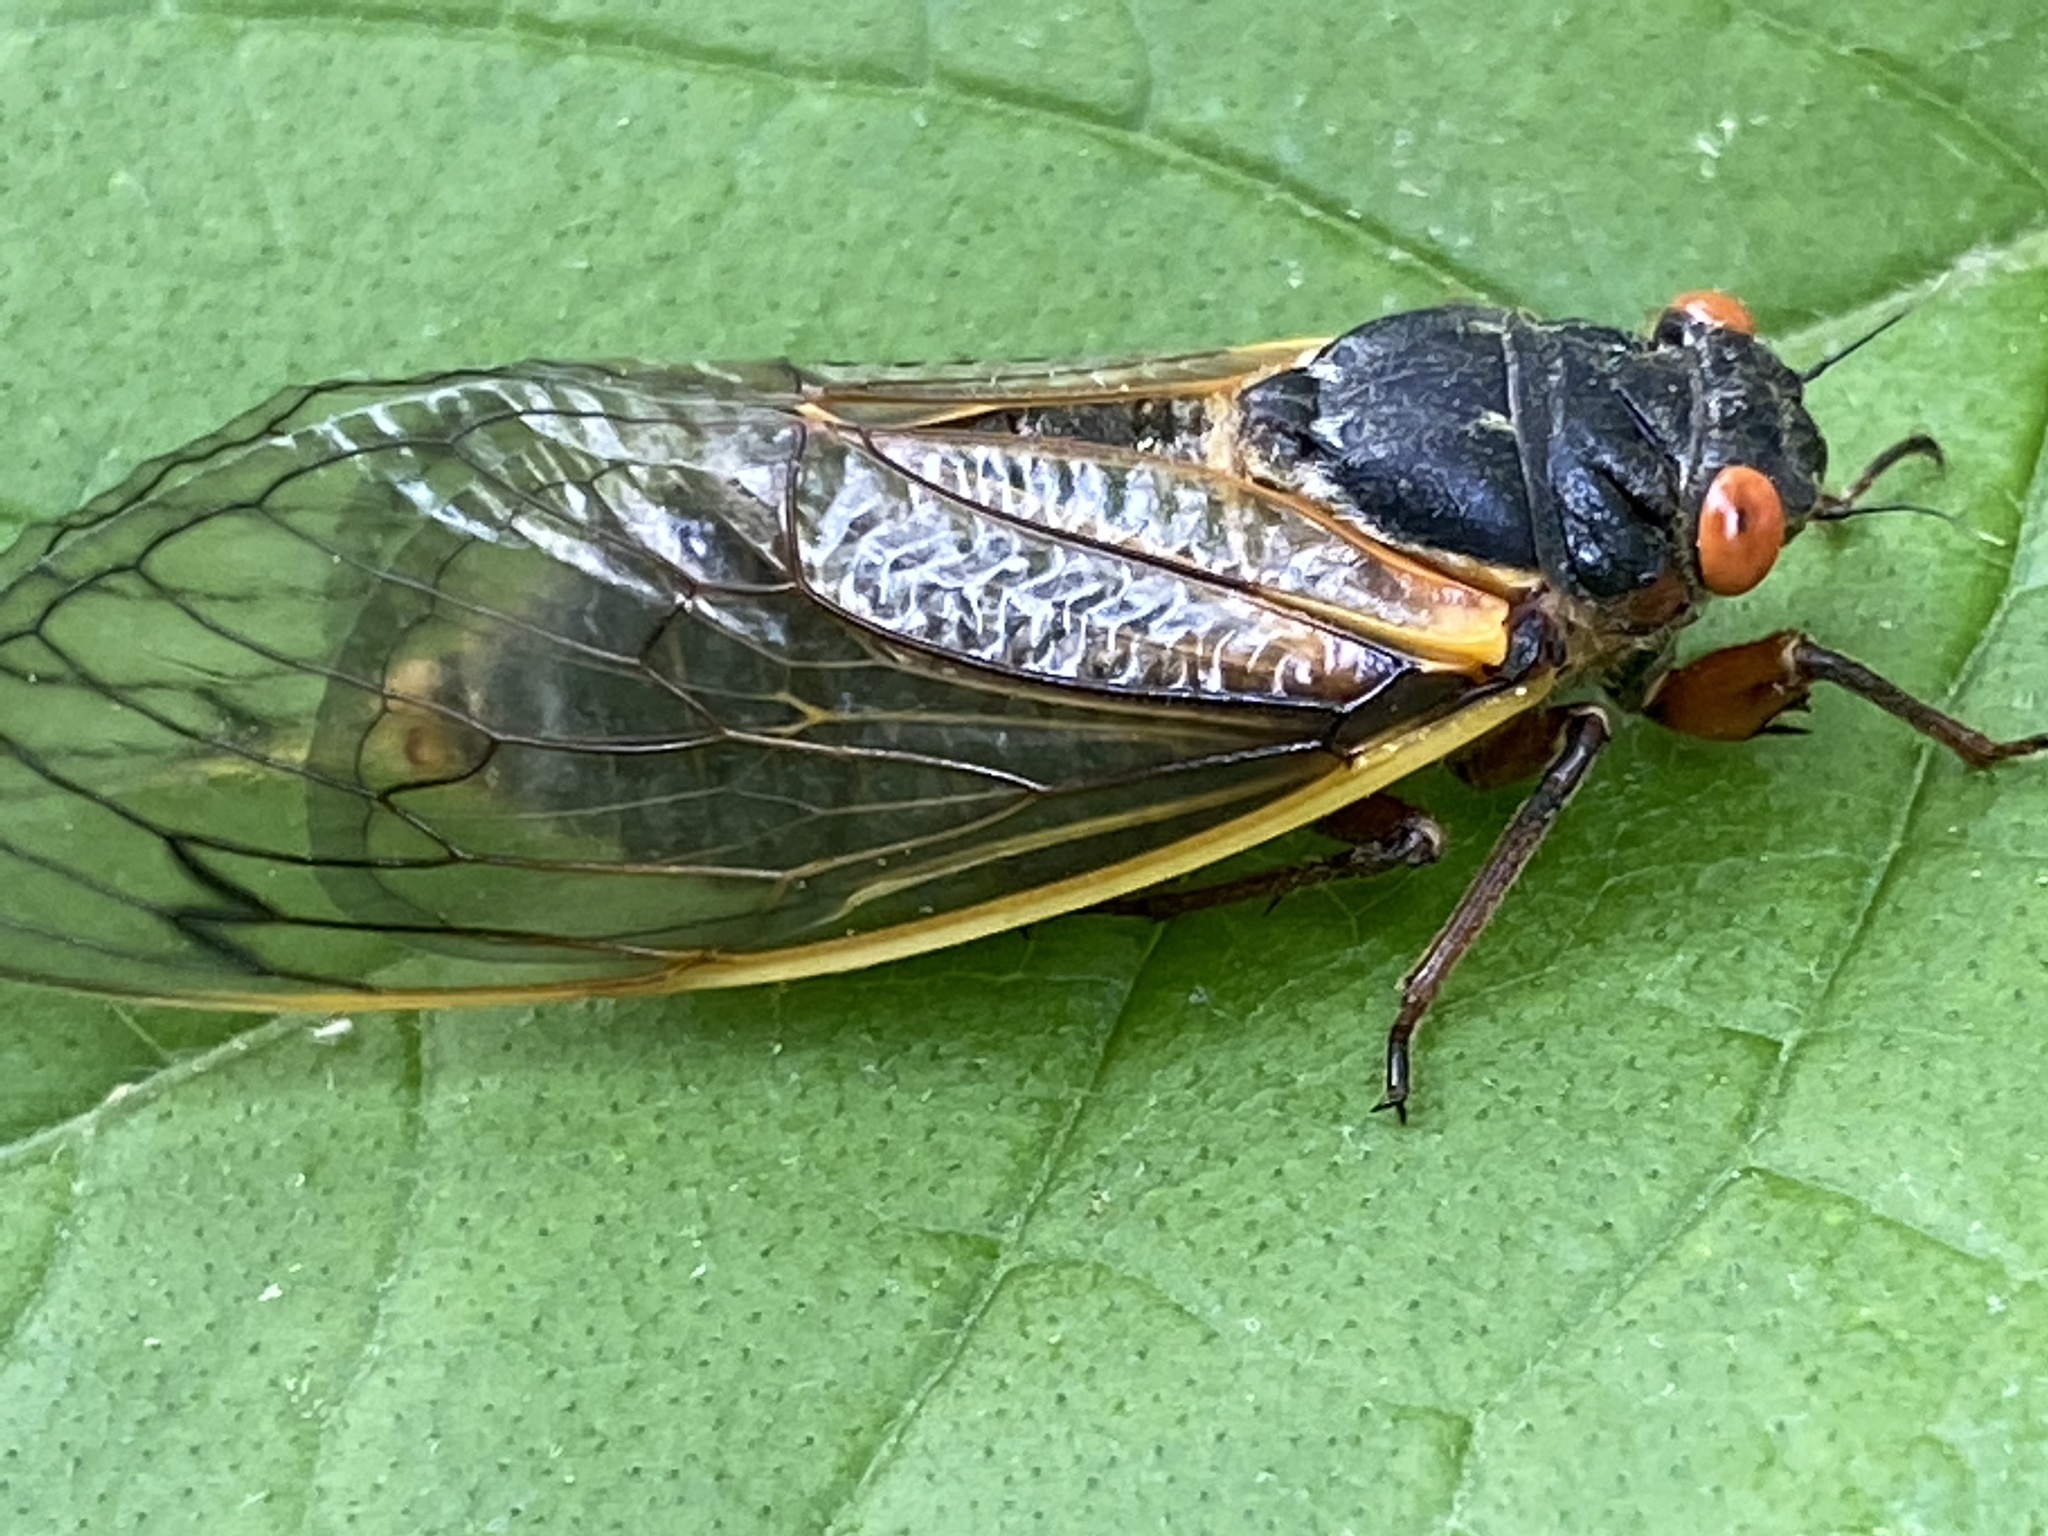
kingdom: Animalia
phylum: Arthropoda
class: Insecta
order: Hemiptera
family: Cicadidae
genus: Magicicada
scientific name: Magicicada septendecim
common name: Periodical cicada
